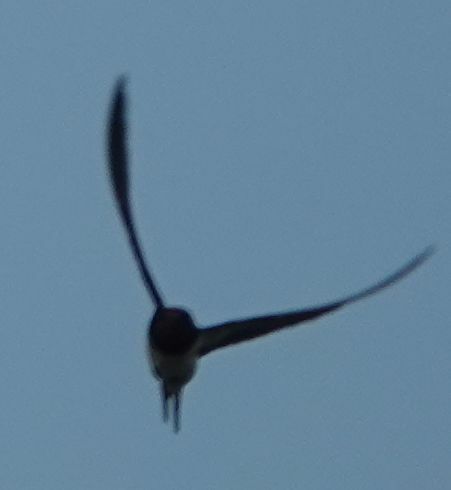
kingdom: Animalia
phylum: Chordata
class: Aves
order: Passeriformes
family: Hirundinidae
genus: Hirundo
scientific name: Hirundo rustica
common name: Barn swallow
